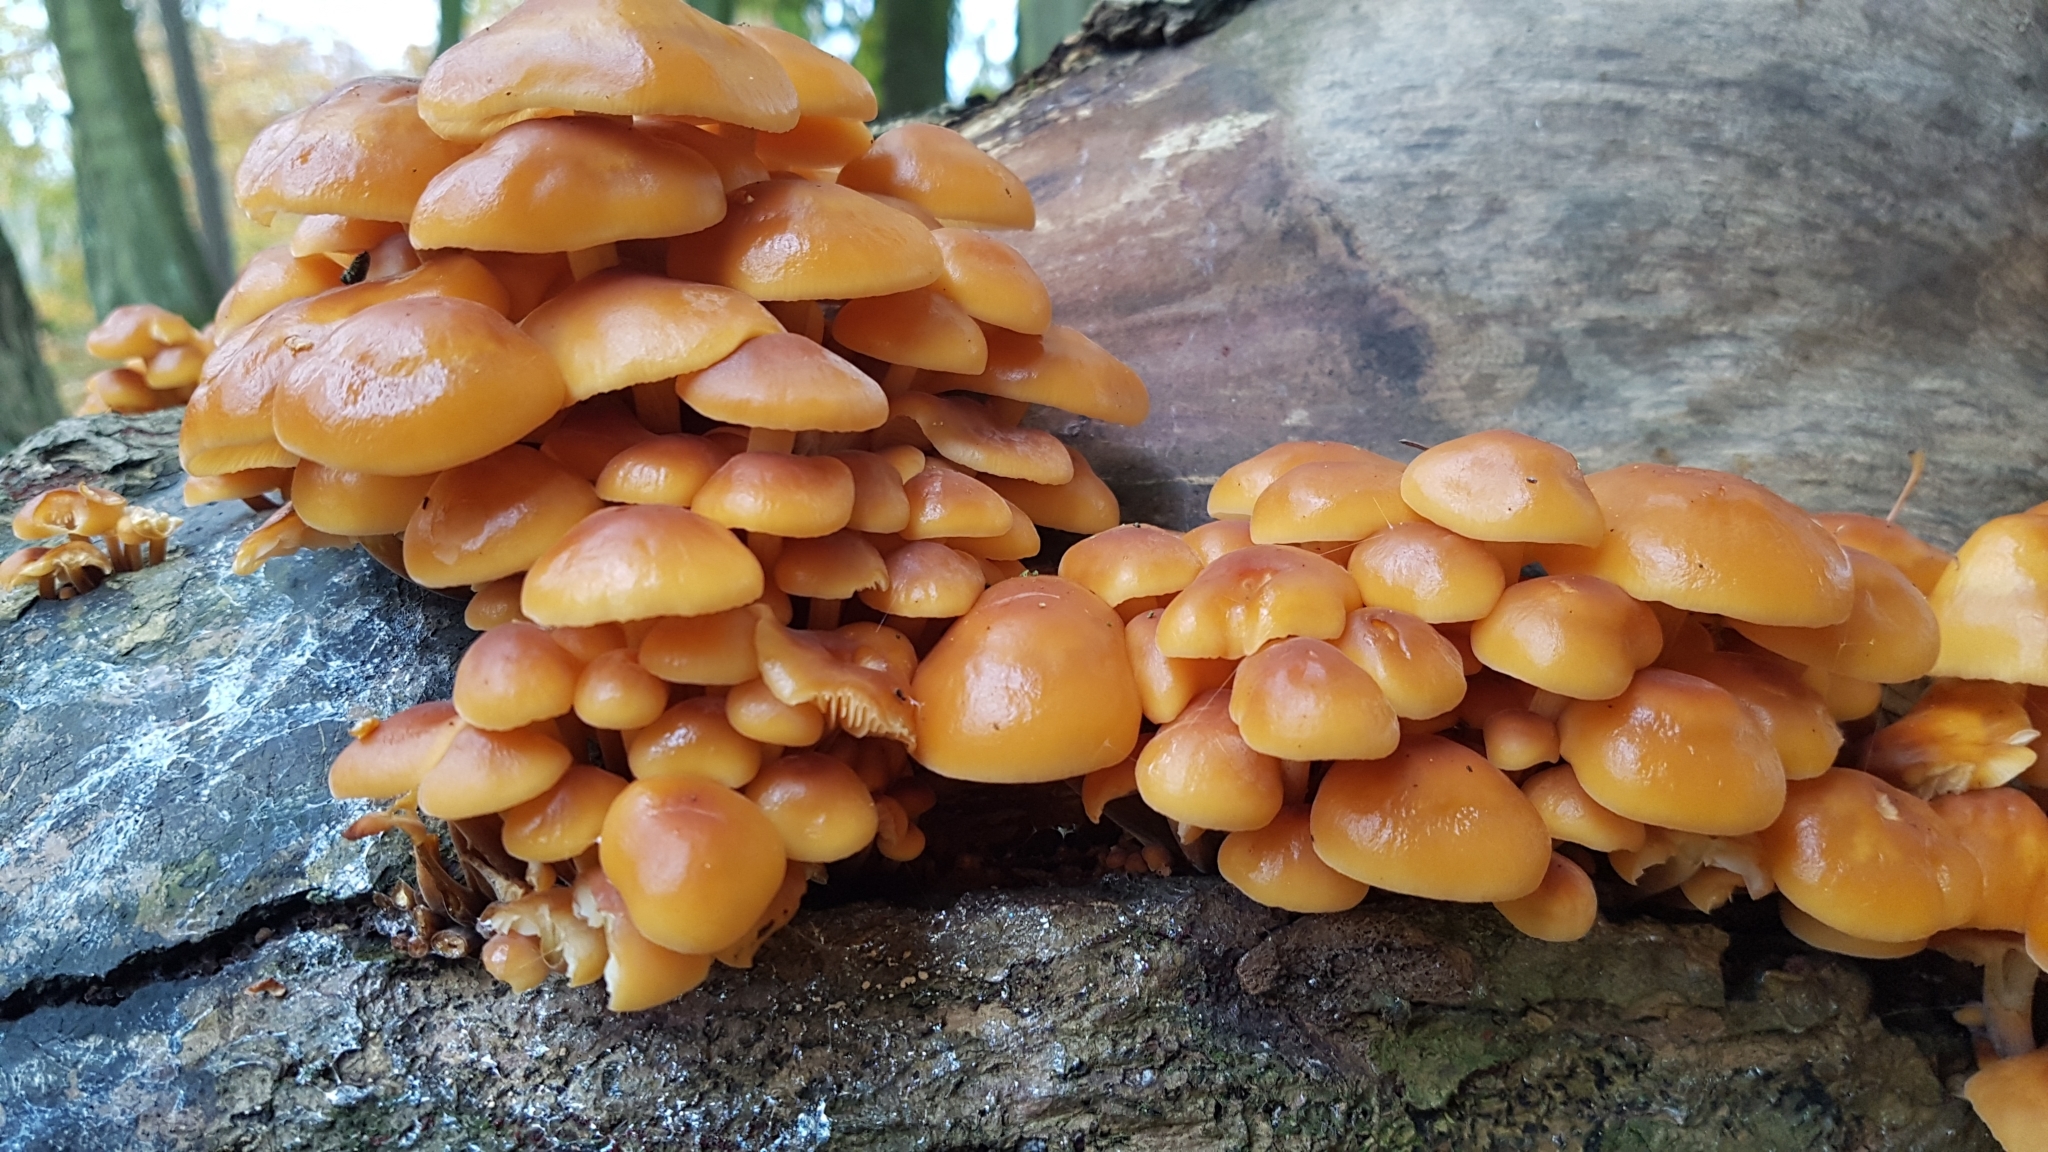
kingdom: Fungi
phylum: Basidiomycota
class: Agaricomycetes
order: Agaricales
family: Physalacriaceae
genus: Flammulina
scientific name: Flammulina
